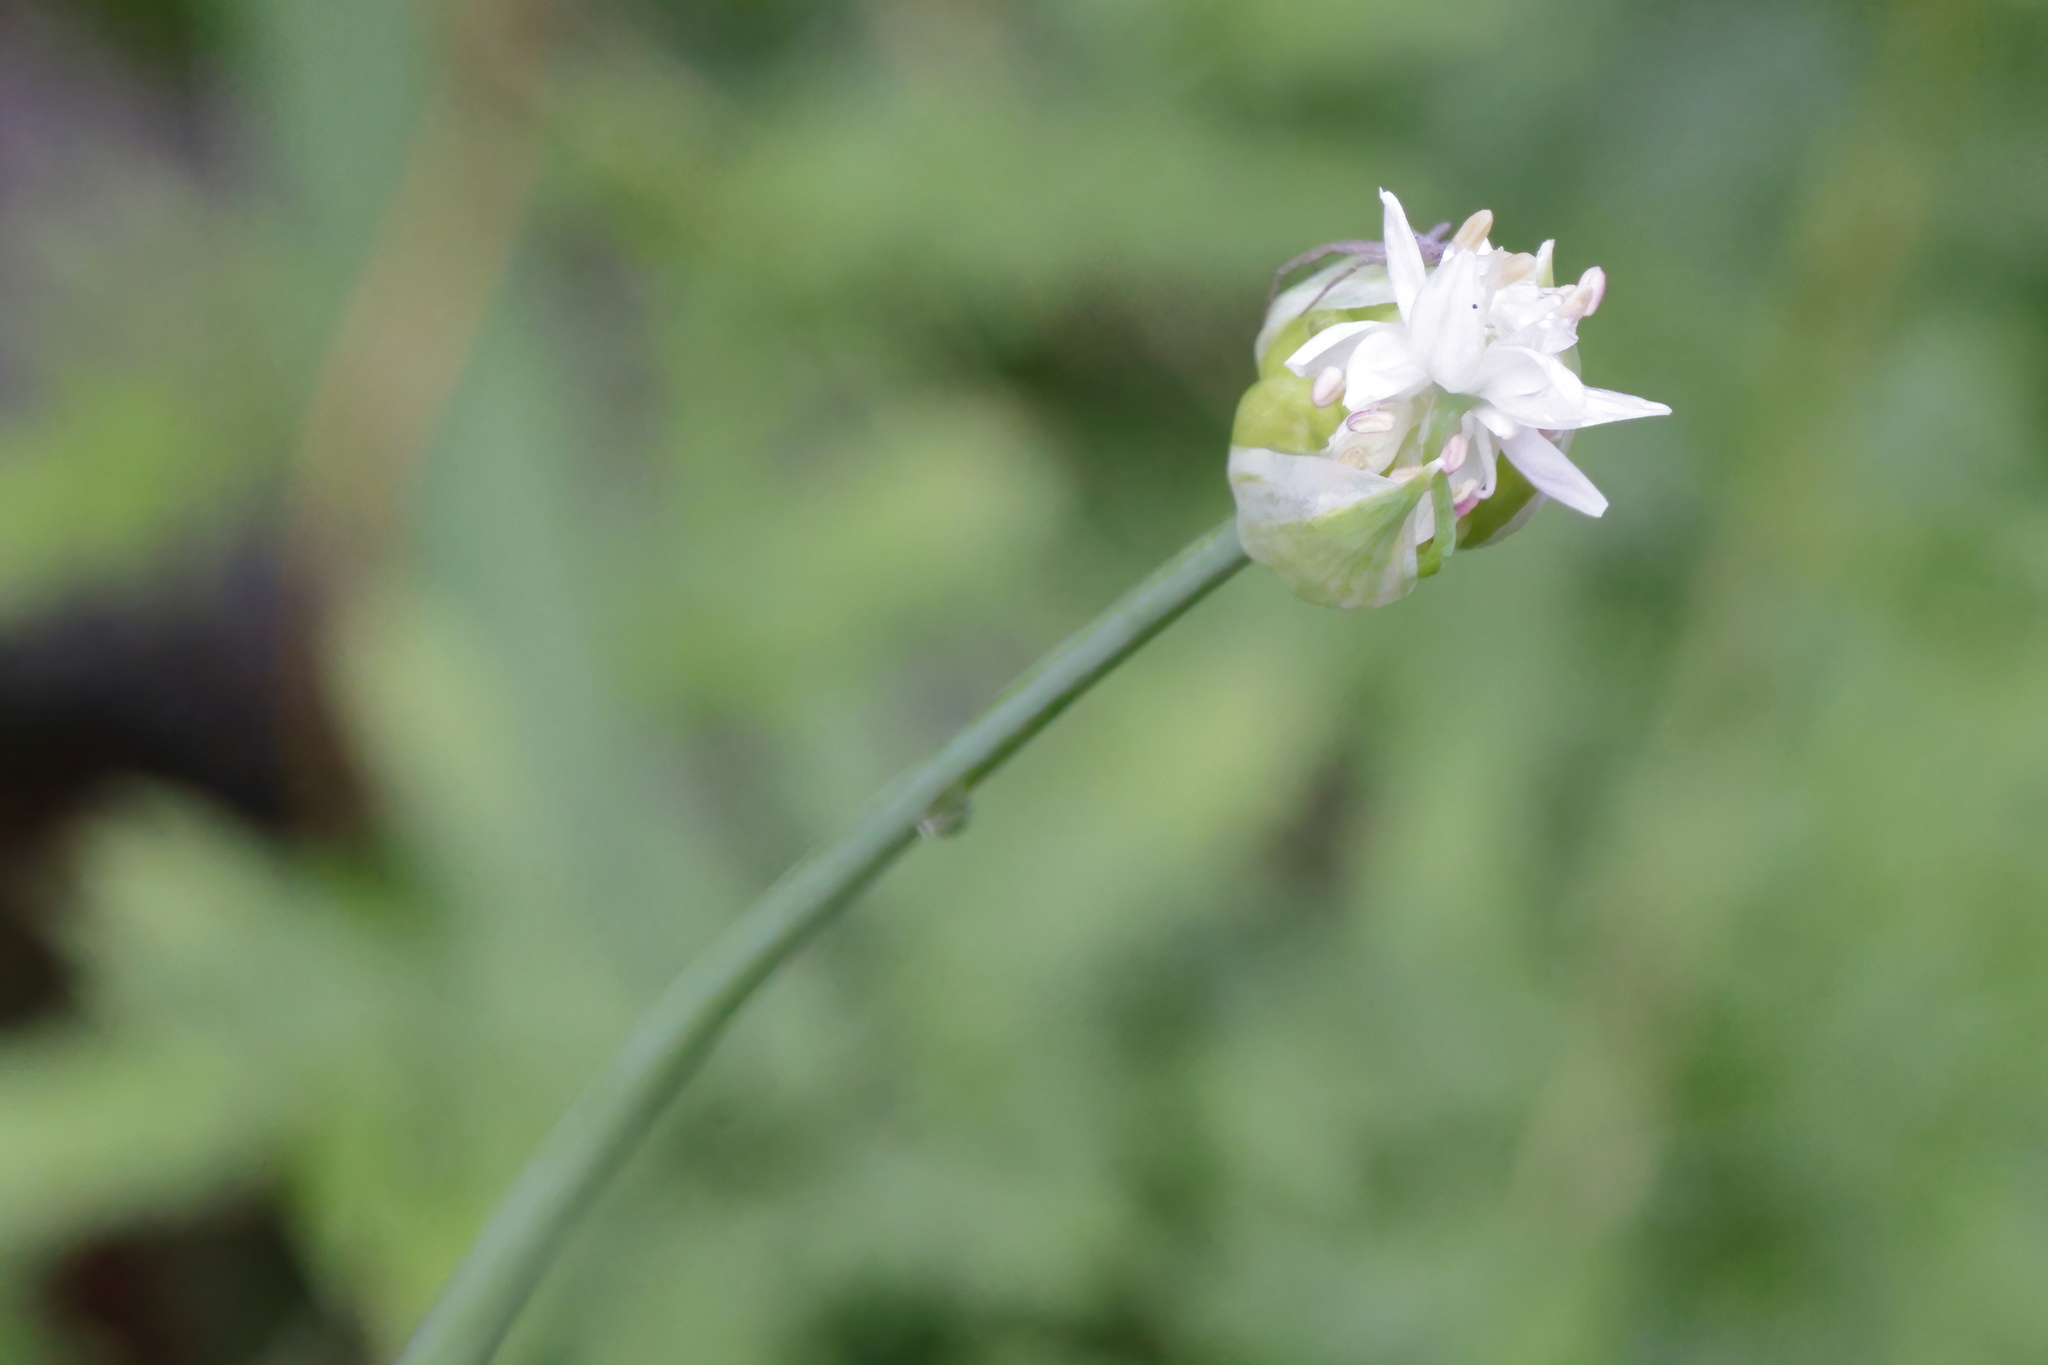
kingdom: Plantae
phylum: Tracheophyta
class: Liliopsida
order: Asparagales
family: Amaryllidaceae
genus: Allium
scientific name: Allium canadense
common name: Meadow garlic
